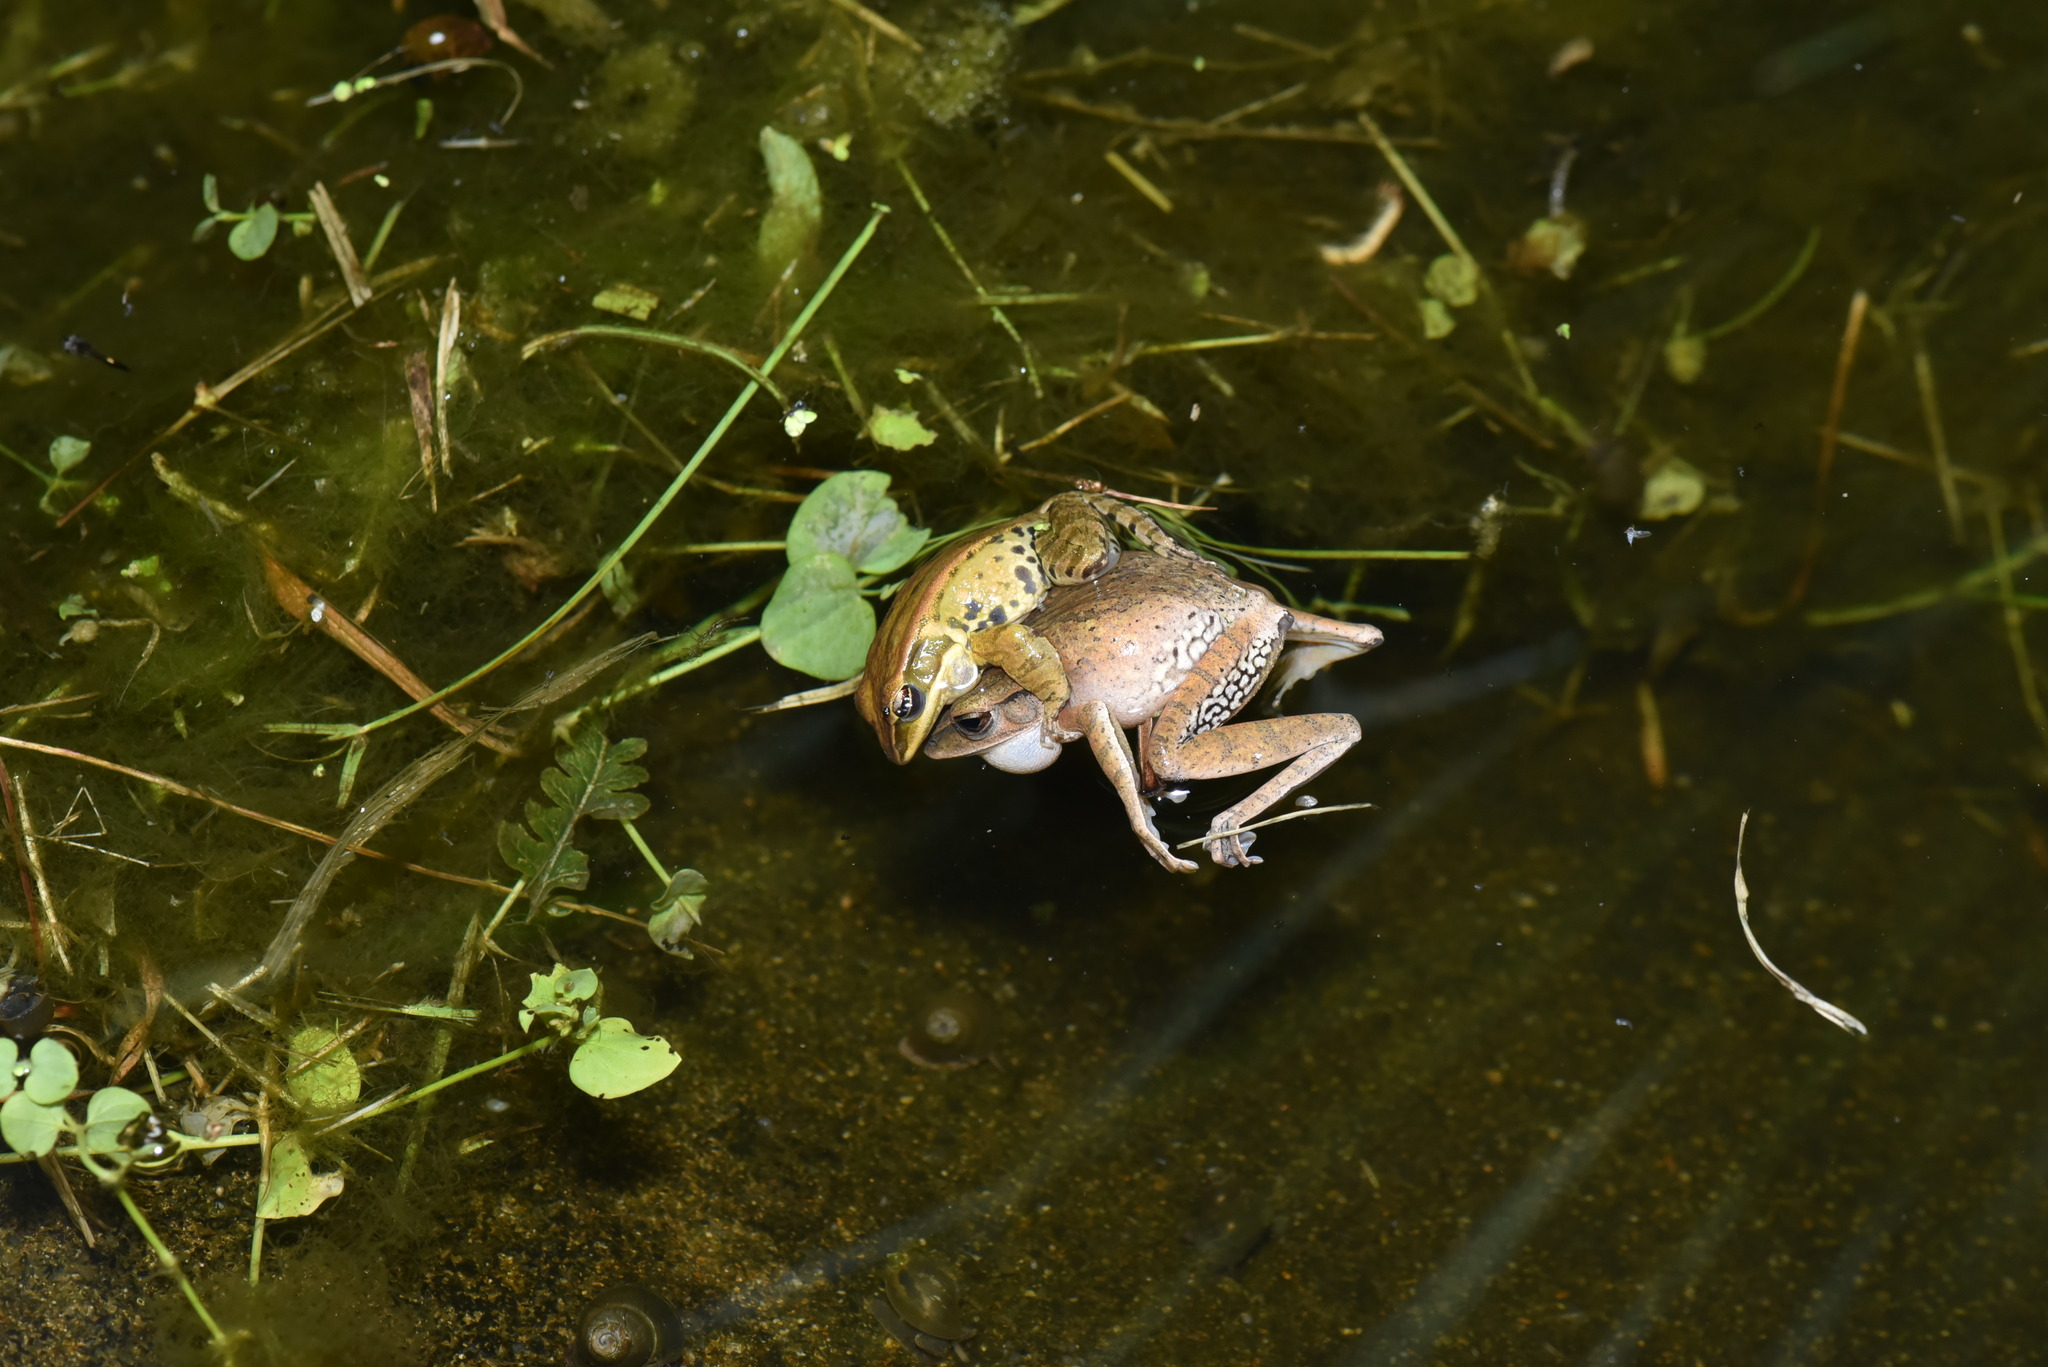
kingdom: Animalia
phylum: Chordata
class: Amphibia
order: Anura
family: Rhacophoridae
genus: Polypedates
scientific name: Polypedates braueri
